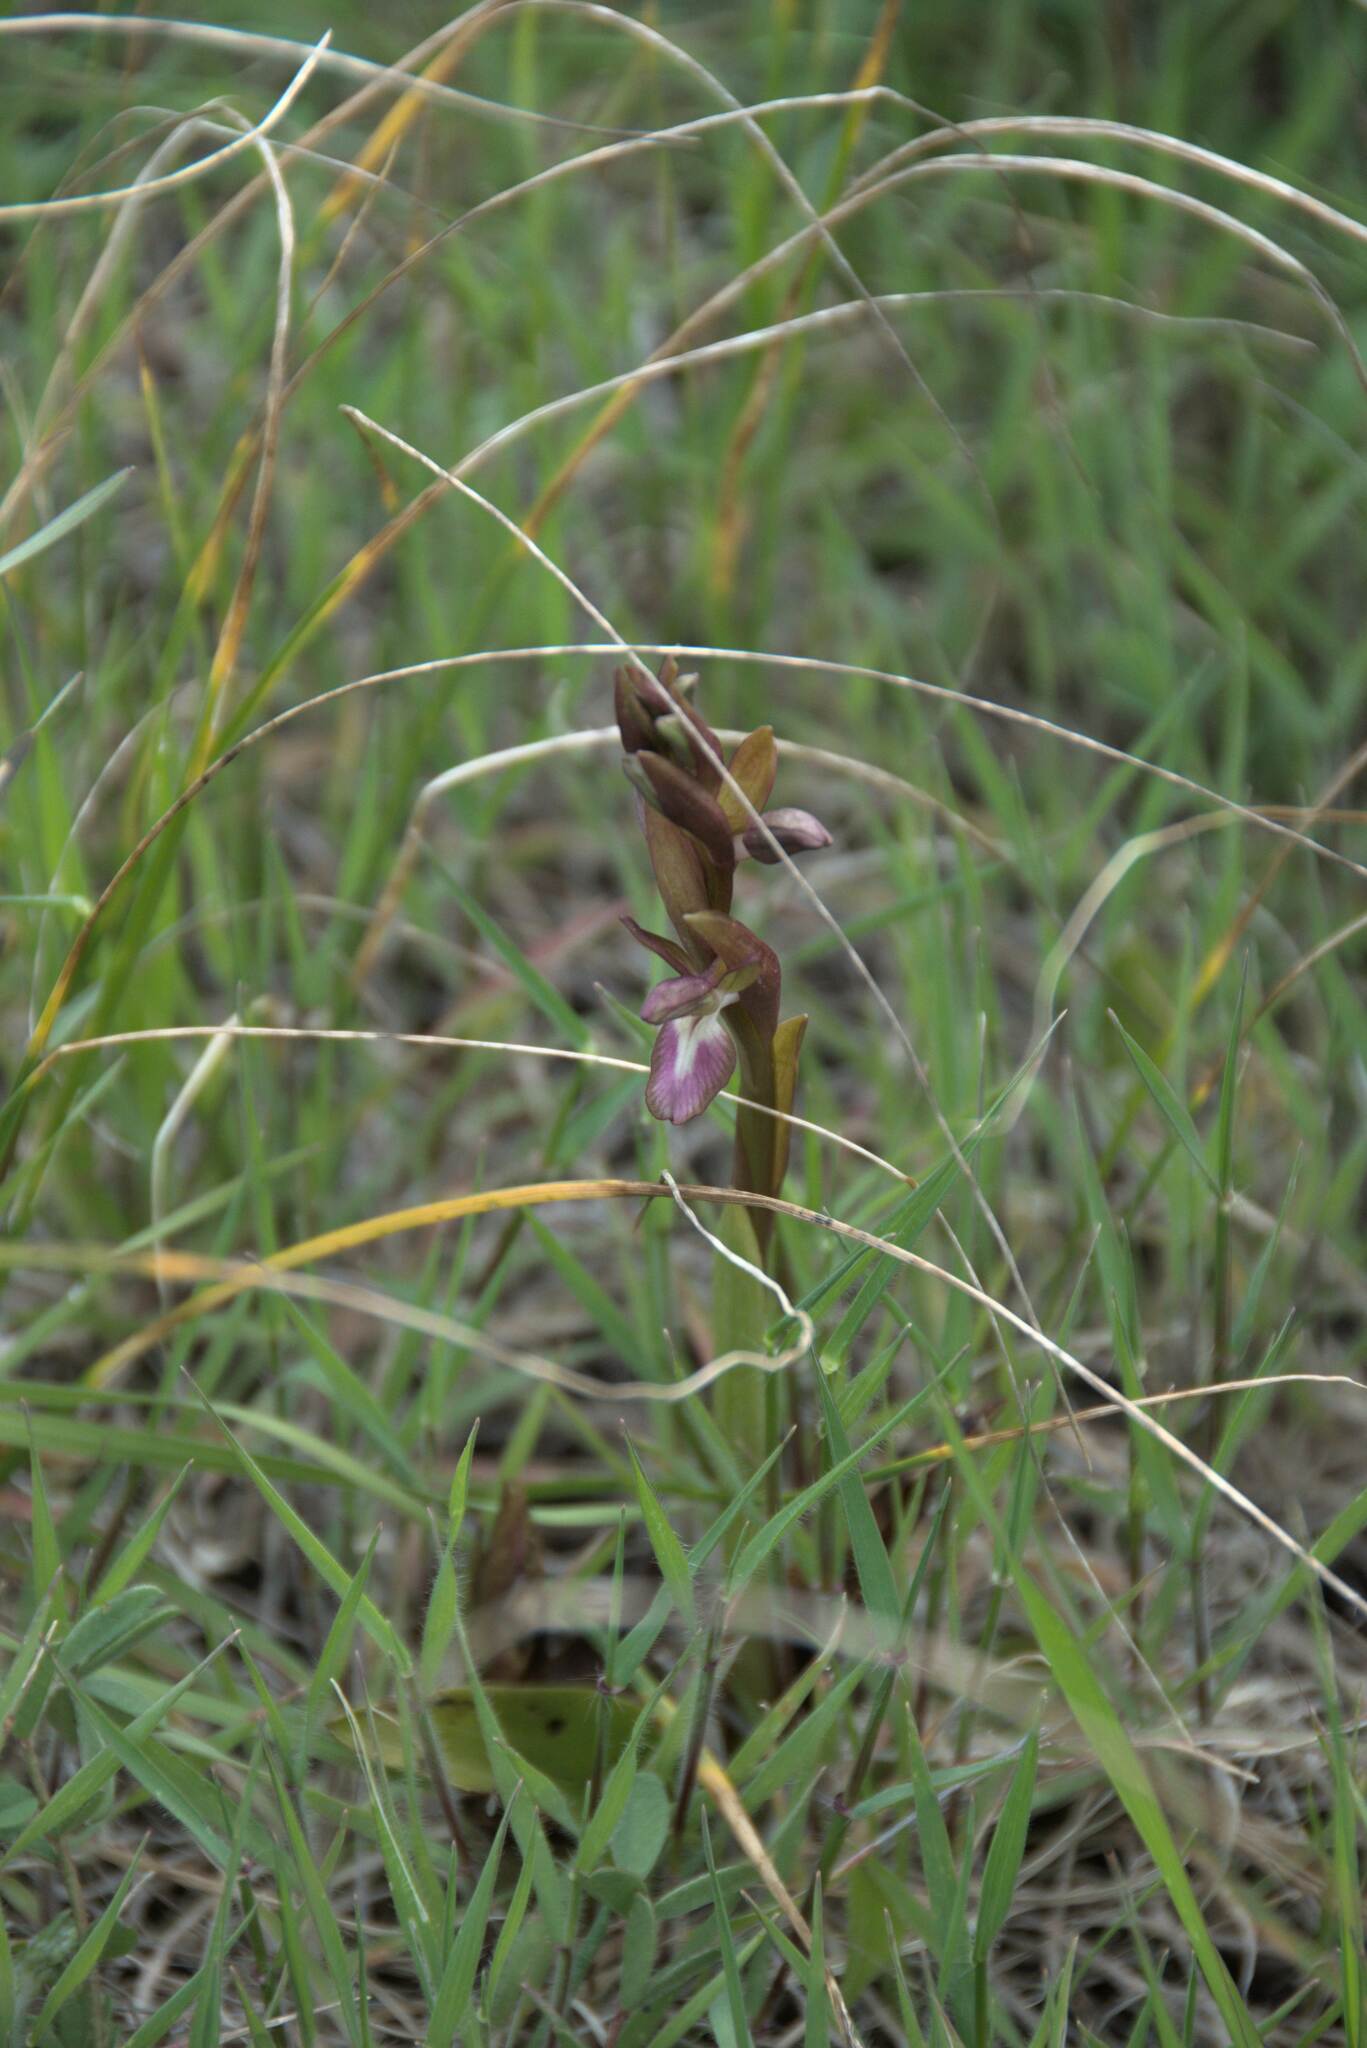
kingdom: Plantae
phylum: Tracheophyta
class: Liliopsida
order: Asparagales
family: Orchidaceae
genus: Anacamptis
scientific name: Anacamptis collina
